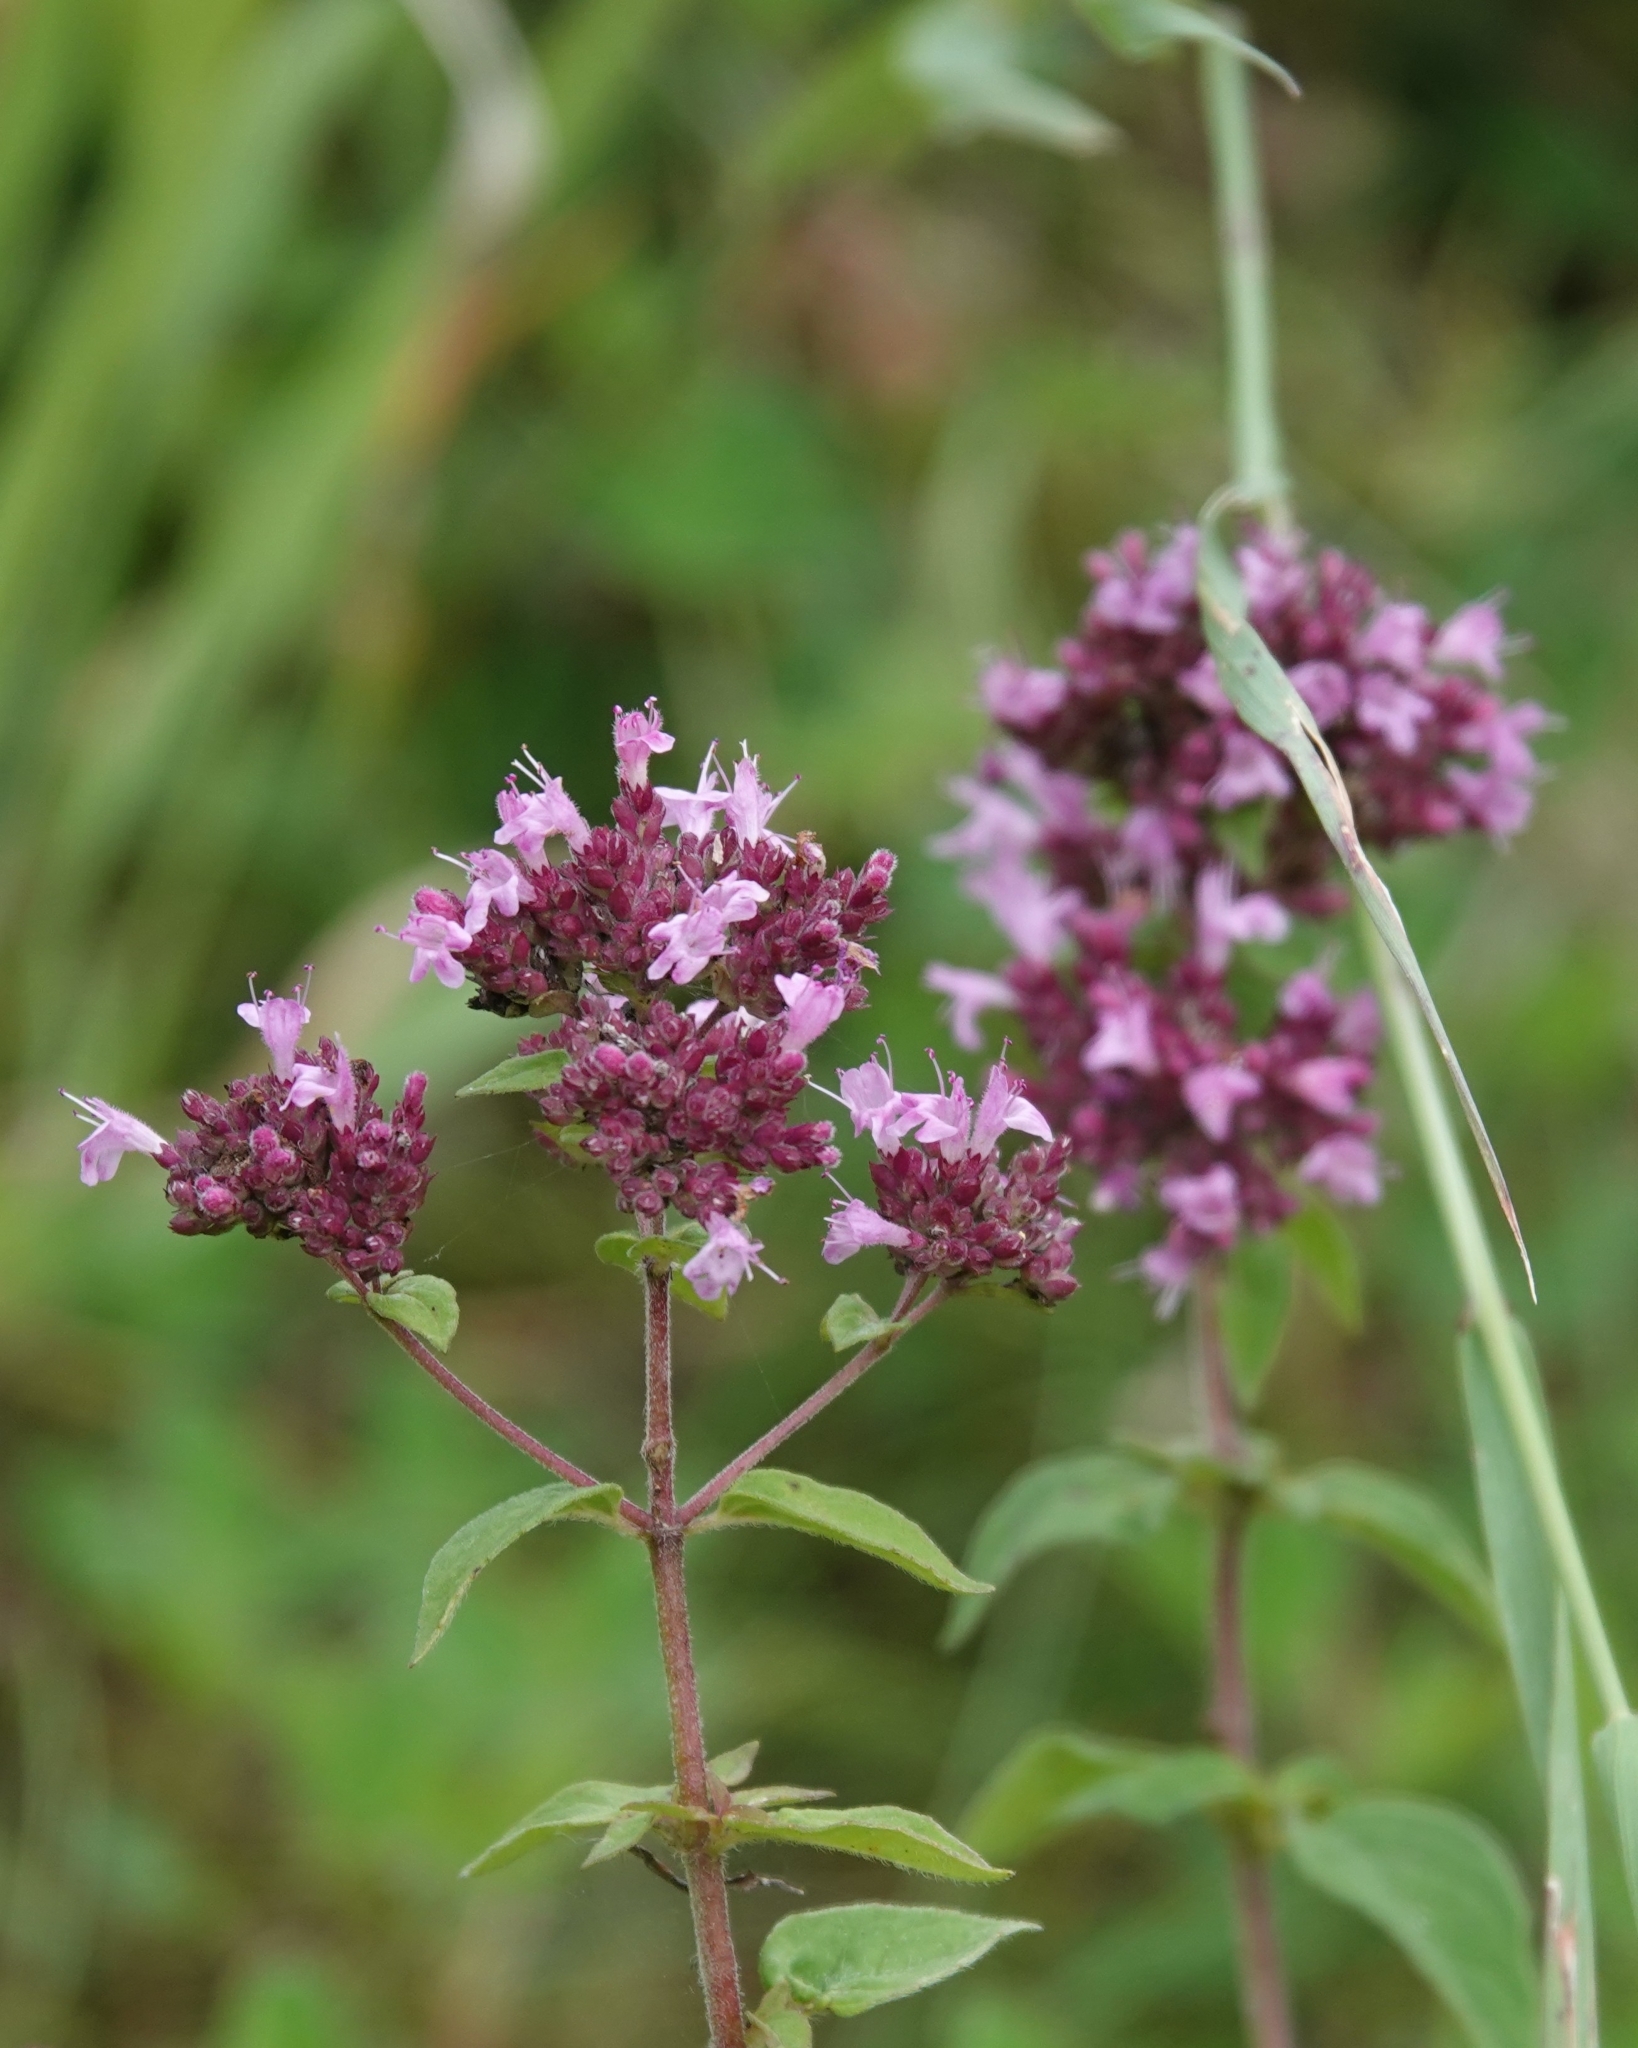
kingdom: Plantae
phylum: Tracheophyta
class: Magnoliopsida
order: Lamiales
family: Lamiaceae
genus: Origanum
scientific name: Origanum vulgare
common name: Wild marjoram
